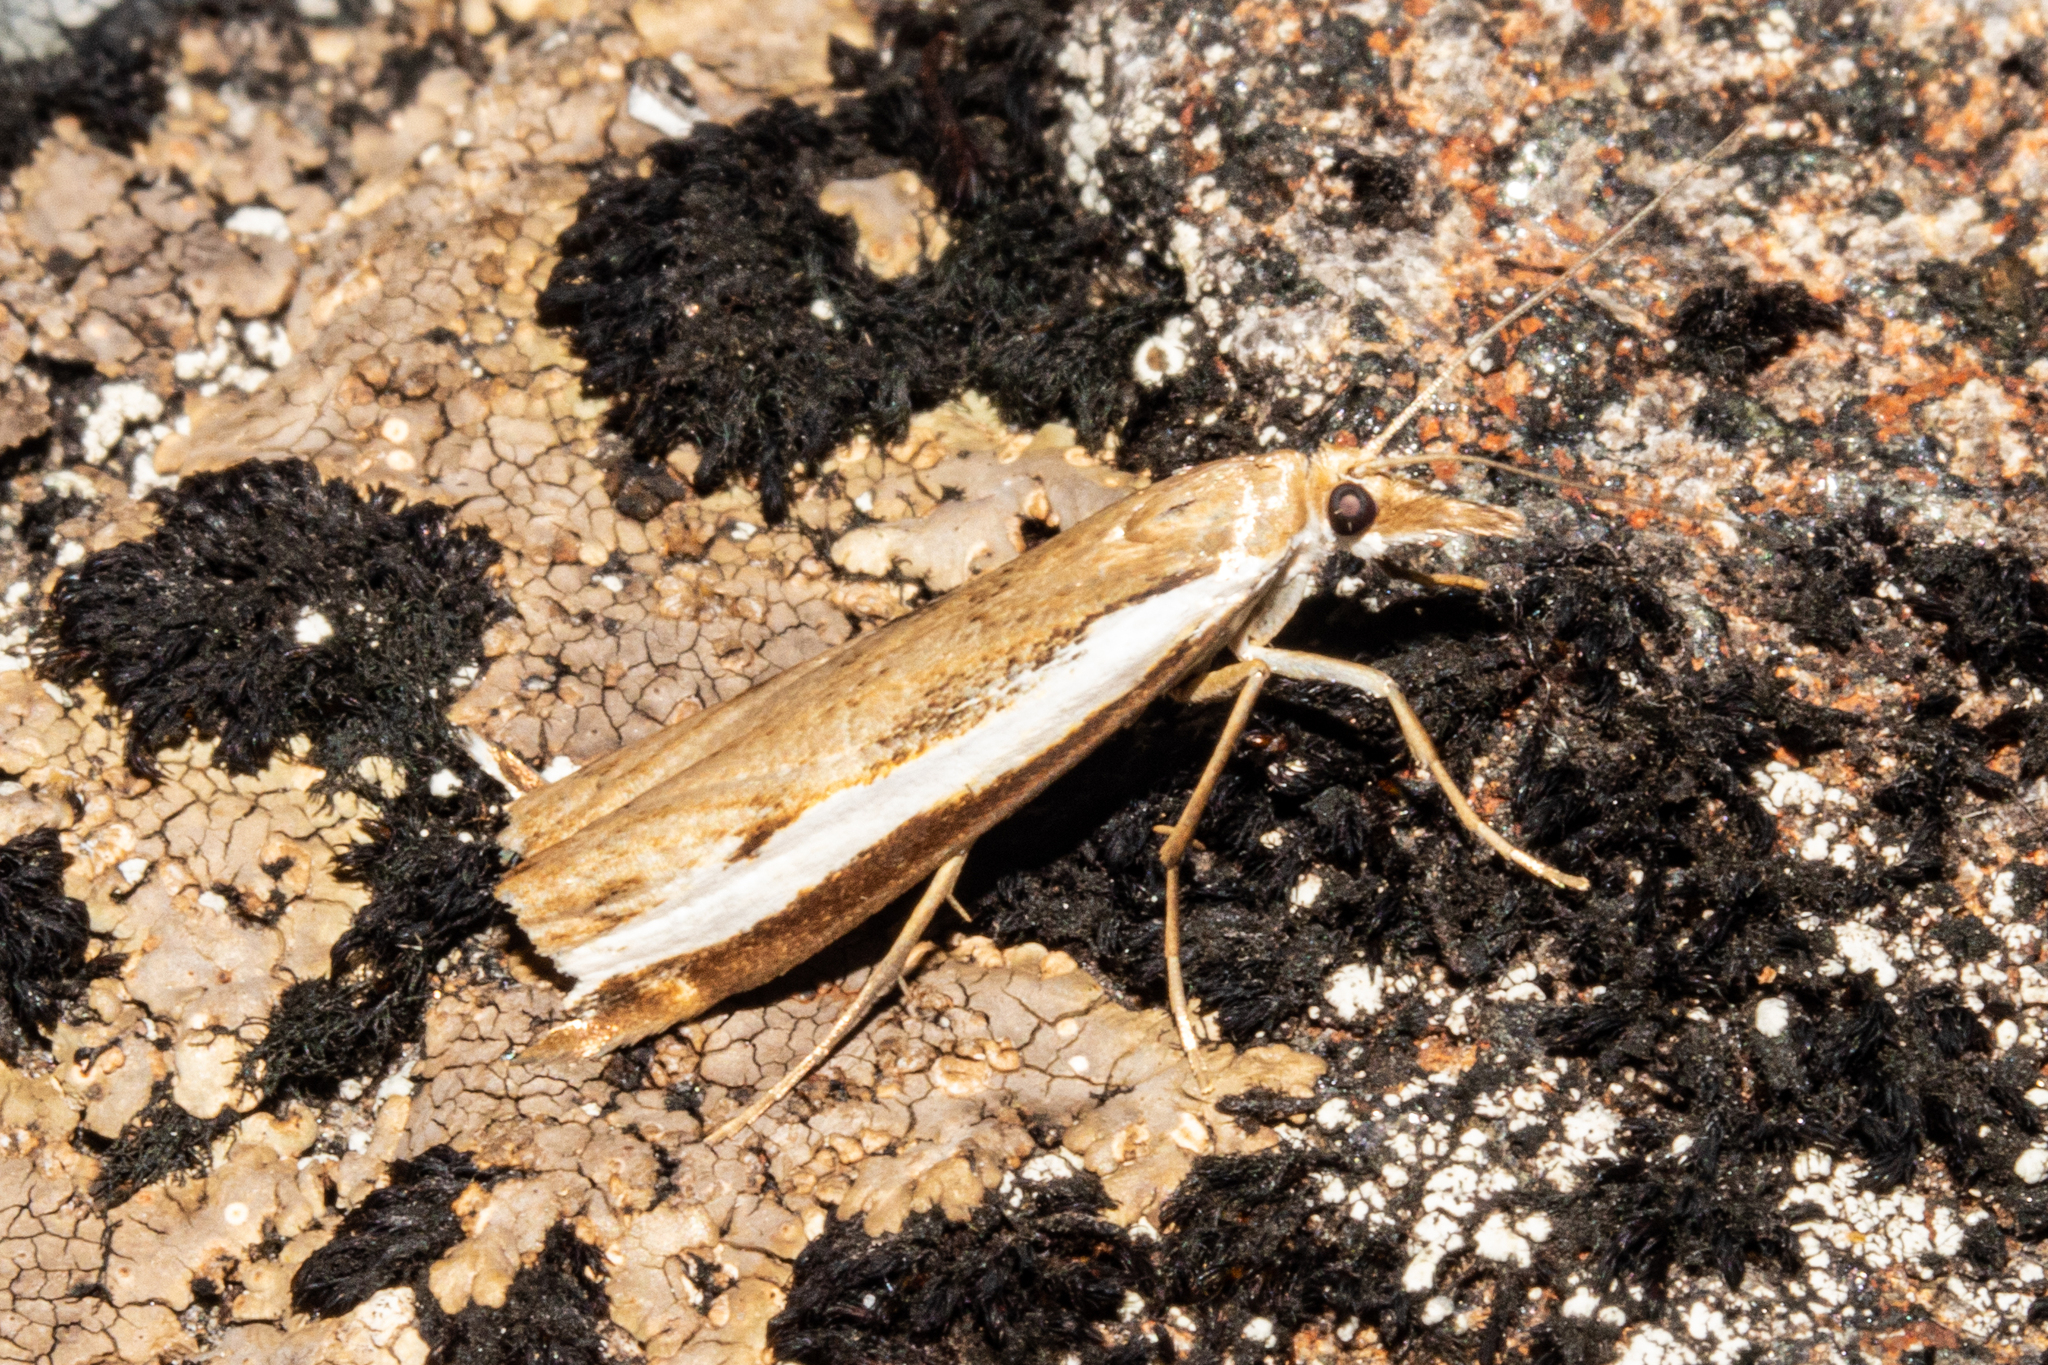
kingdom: Animalia
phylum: Arthropoda
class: Insecta
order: Lepidoptera
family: Crambidae
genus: Orocrambus
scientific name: Orocrambus flexuosellus
